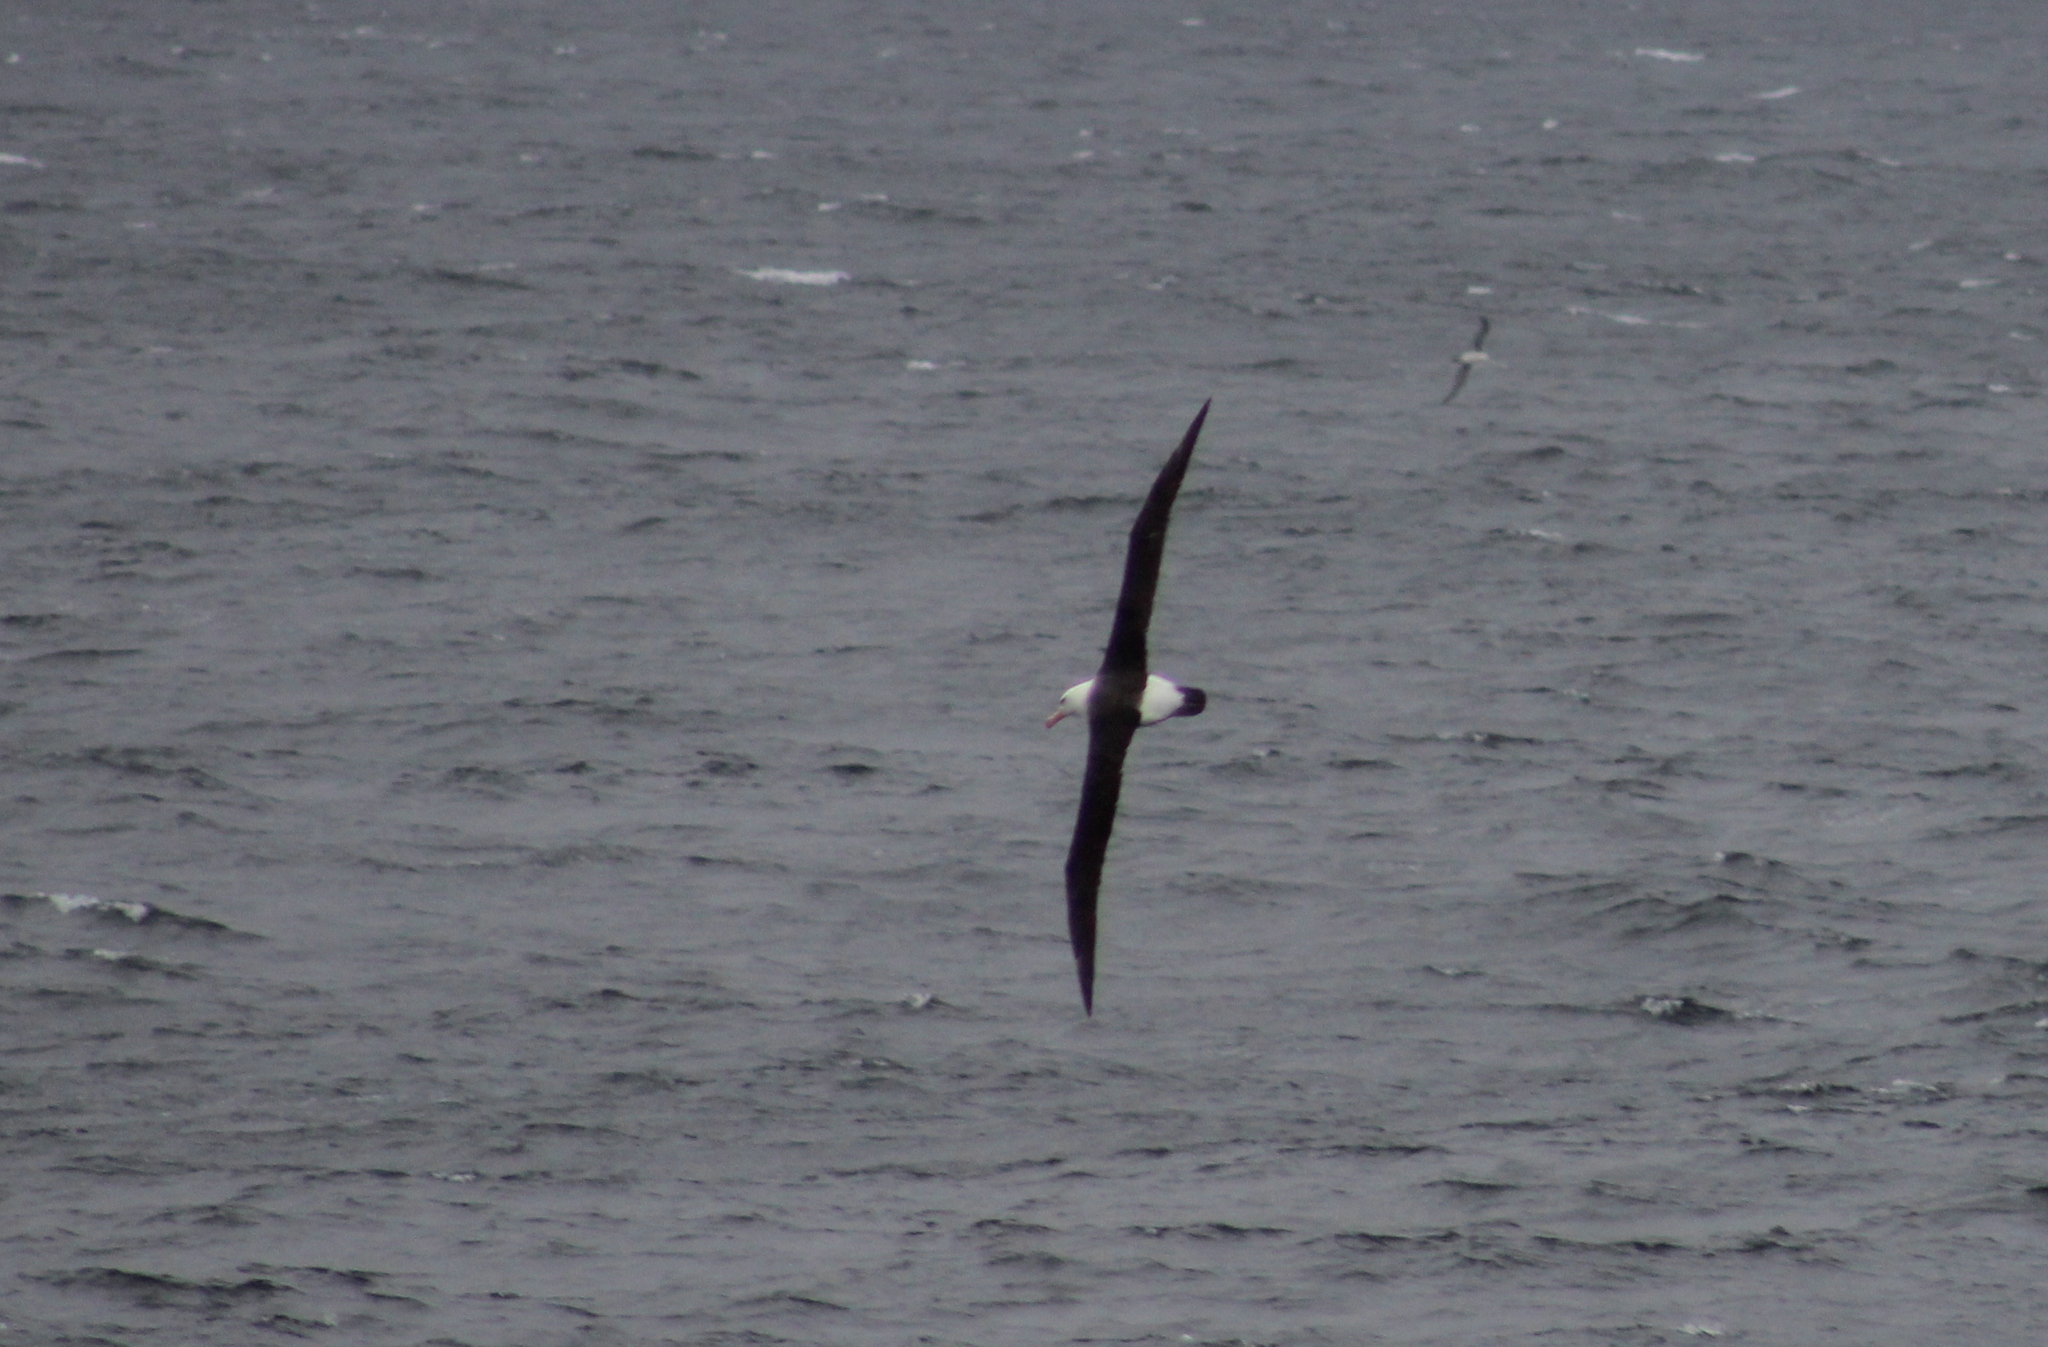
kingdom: Animalia
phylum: Chordata
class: Aves
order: Procellariiformes
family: Diomedeidae
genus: Thalassarche
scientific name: Thalassarche melanophris
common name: Black-browed albatross
